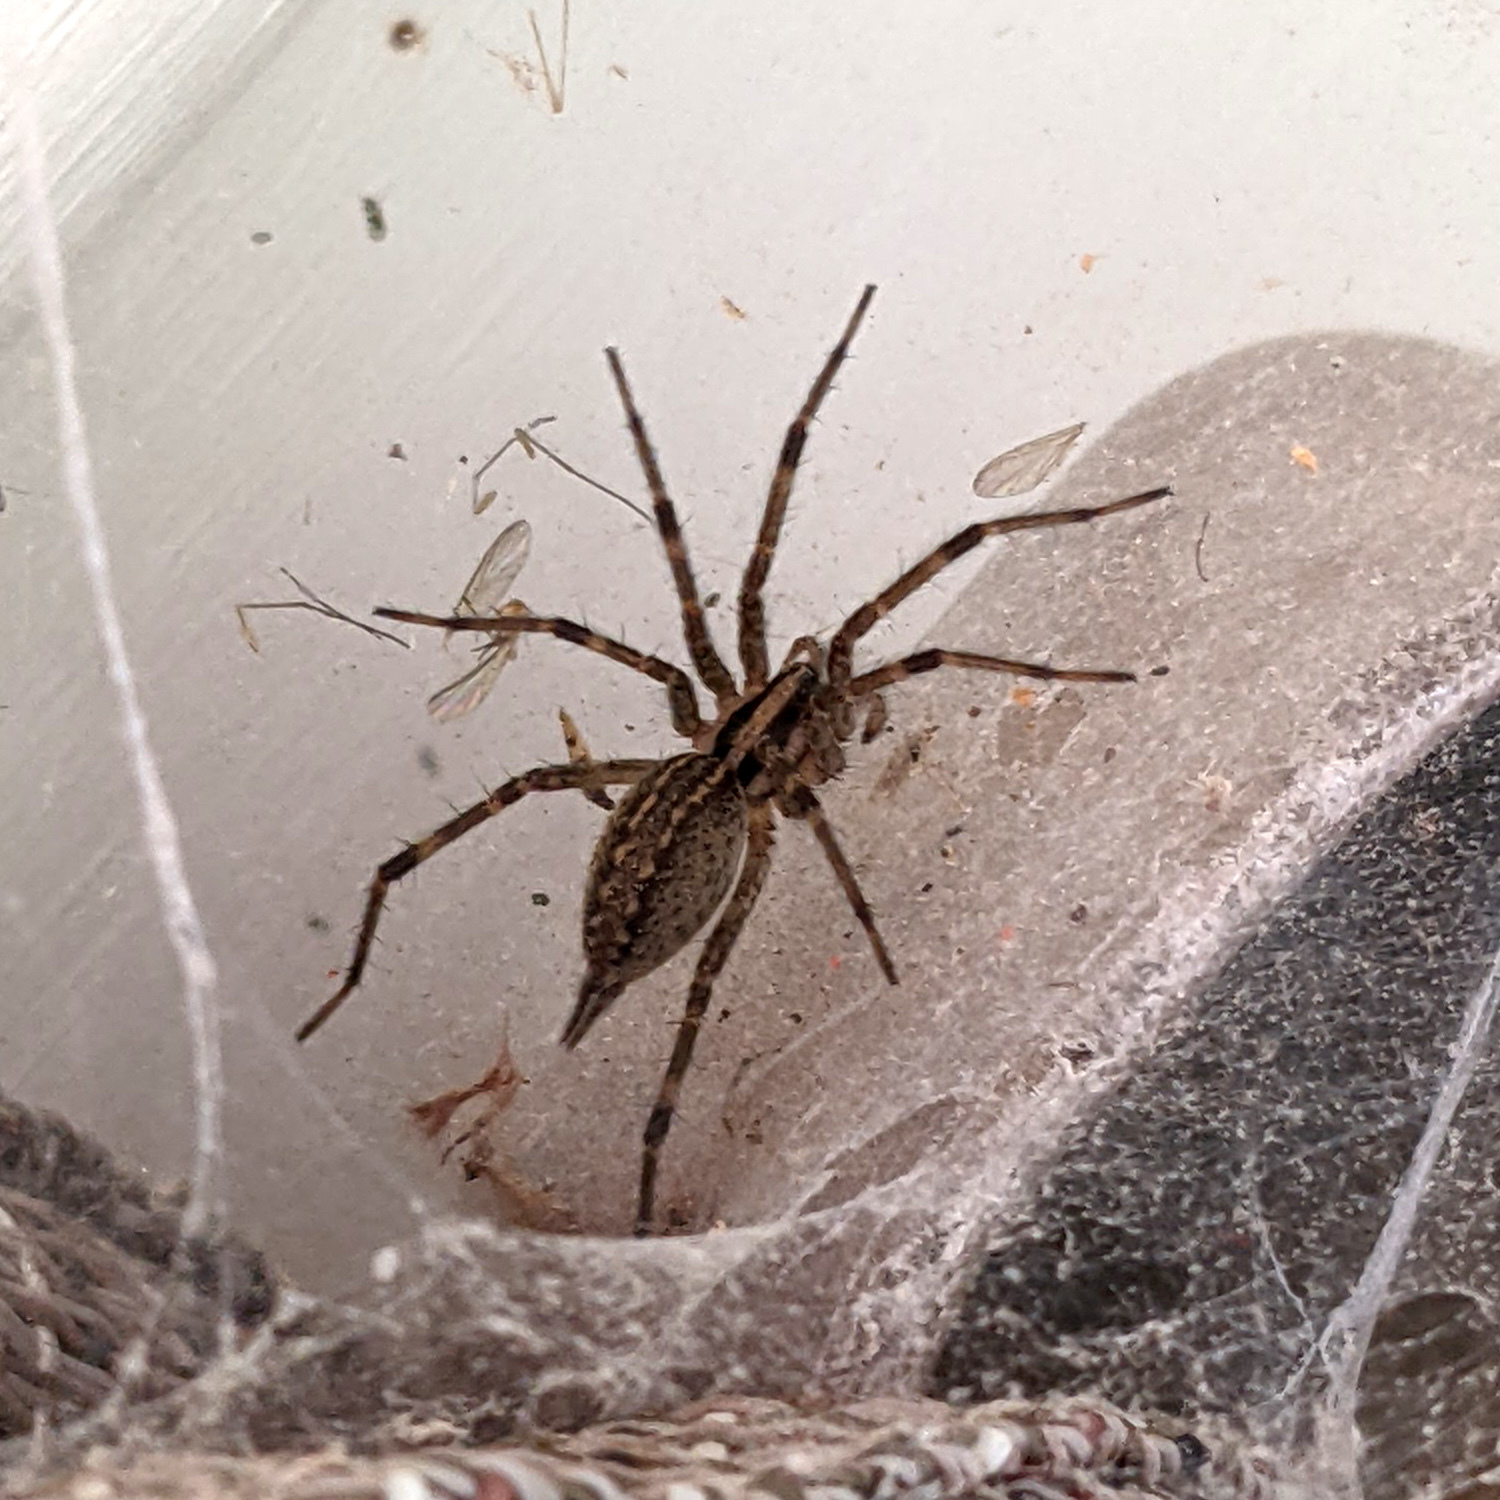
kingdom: Animalia
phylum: Arthropoda
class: Arachnida
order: Araneae
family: Agelenidae
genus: Agelenopsis
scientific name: Agelenopsis
